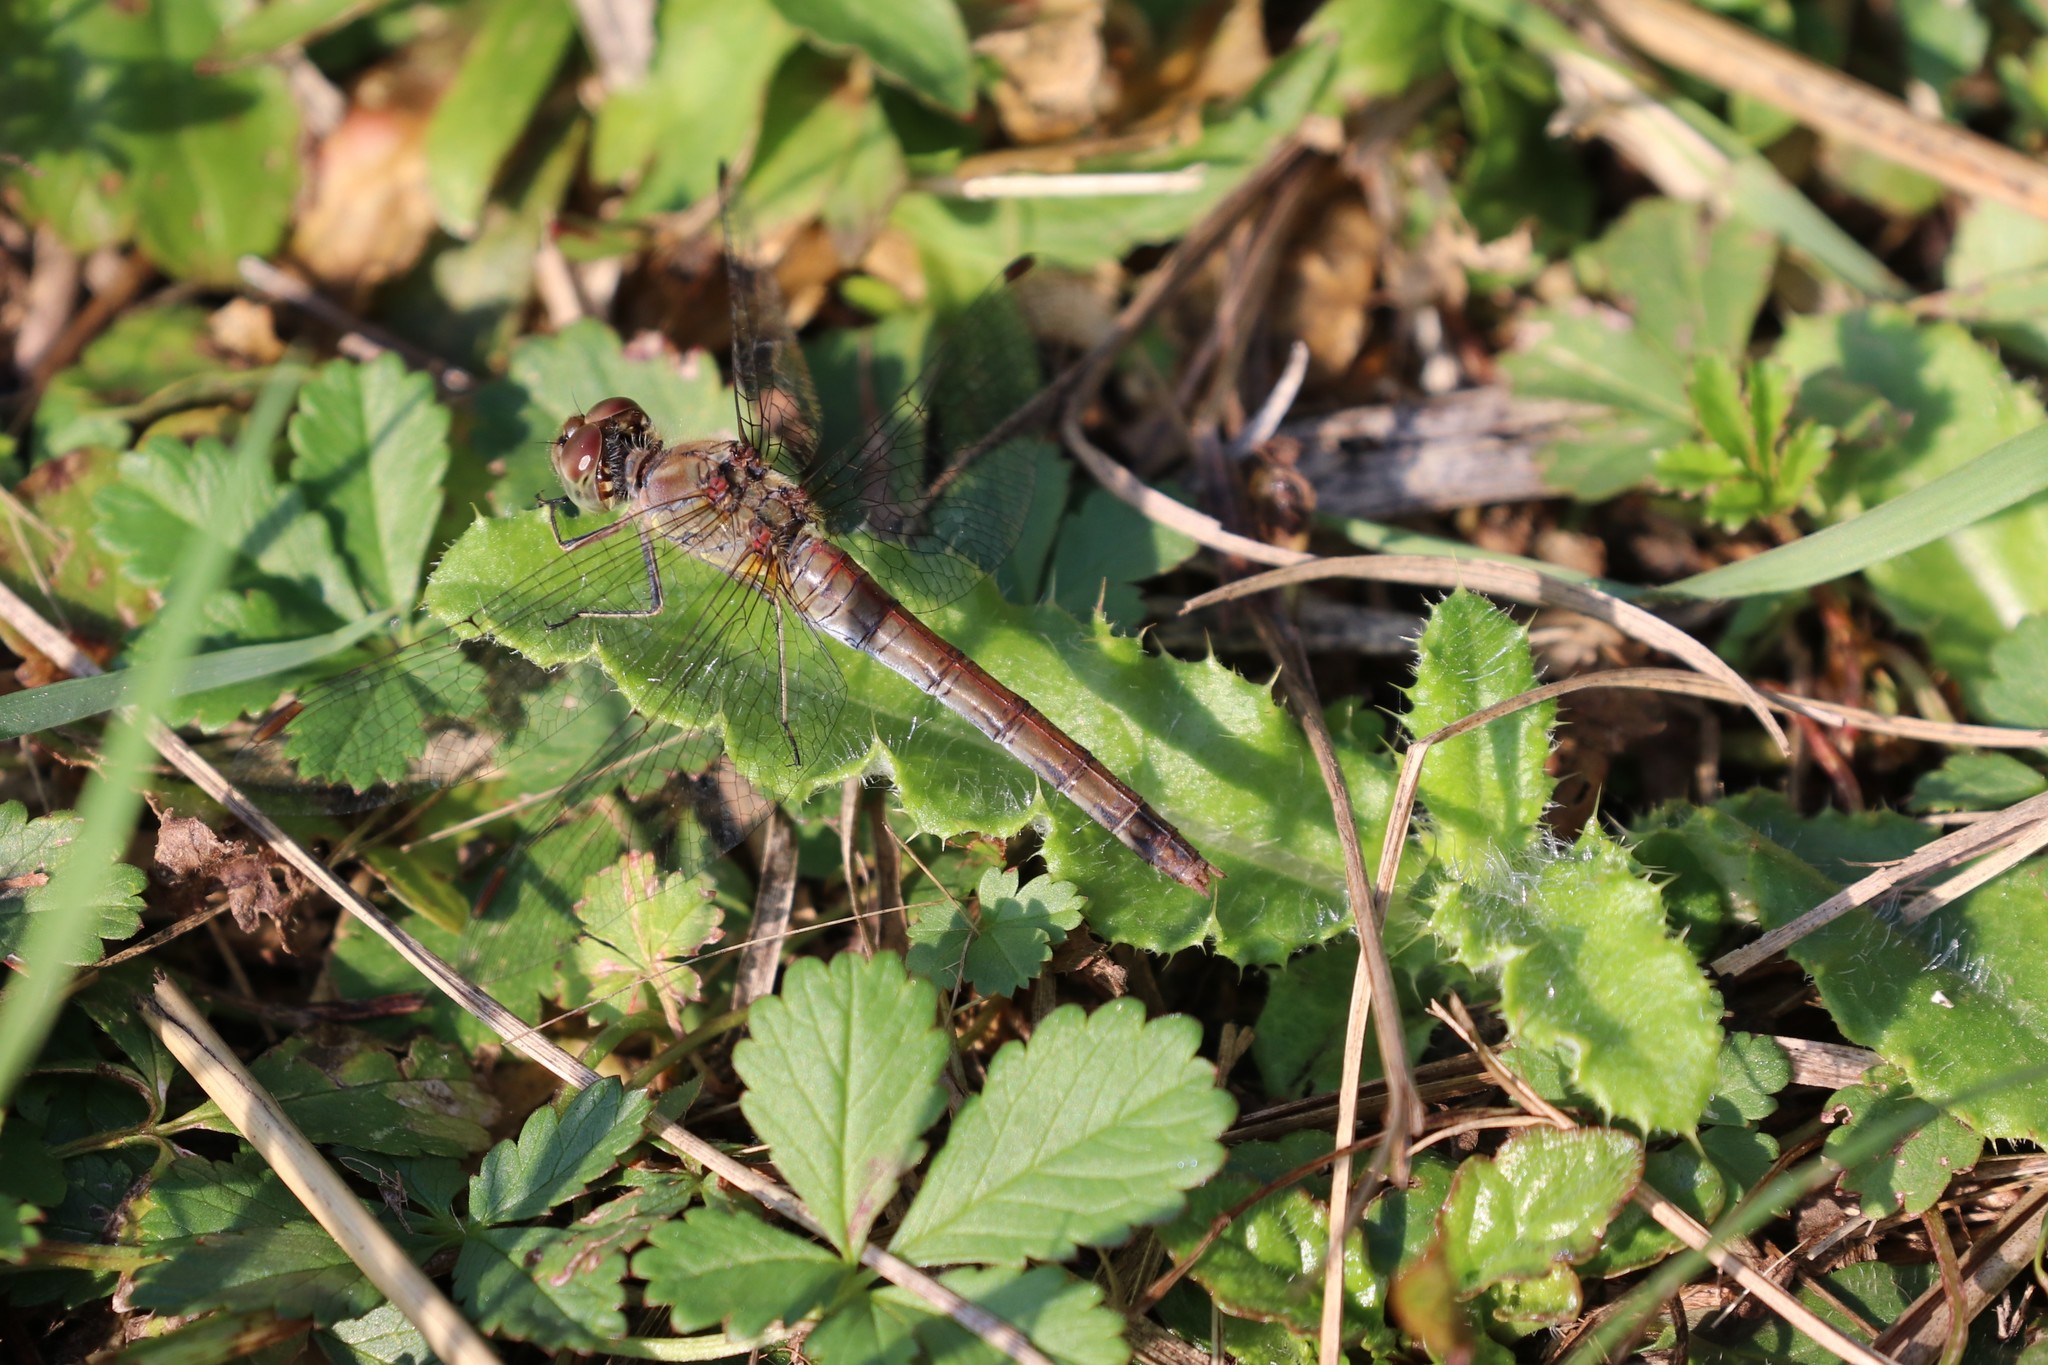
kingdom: Animalia
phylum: Arthropoda
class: Insecta
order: Odonata
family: Libellulidae
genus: Sympetrum
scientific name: Sympetrum striolatum
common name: Common darter
